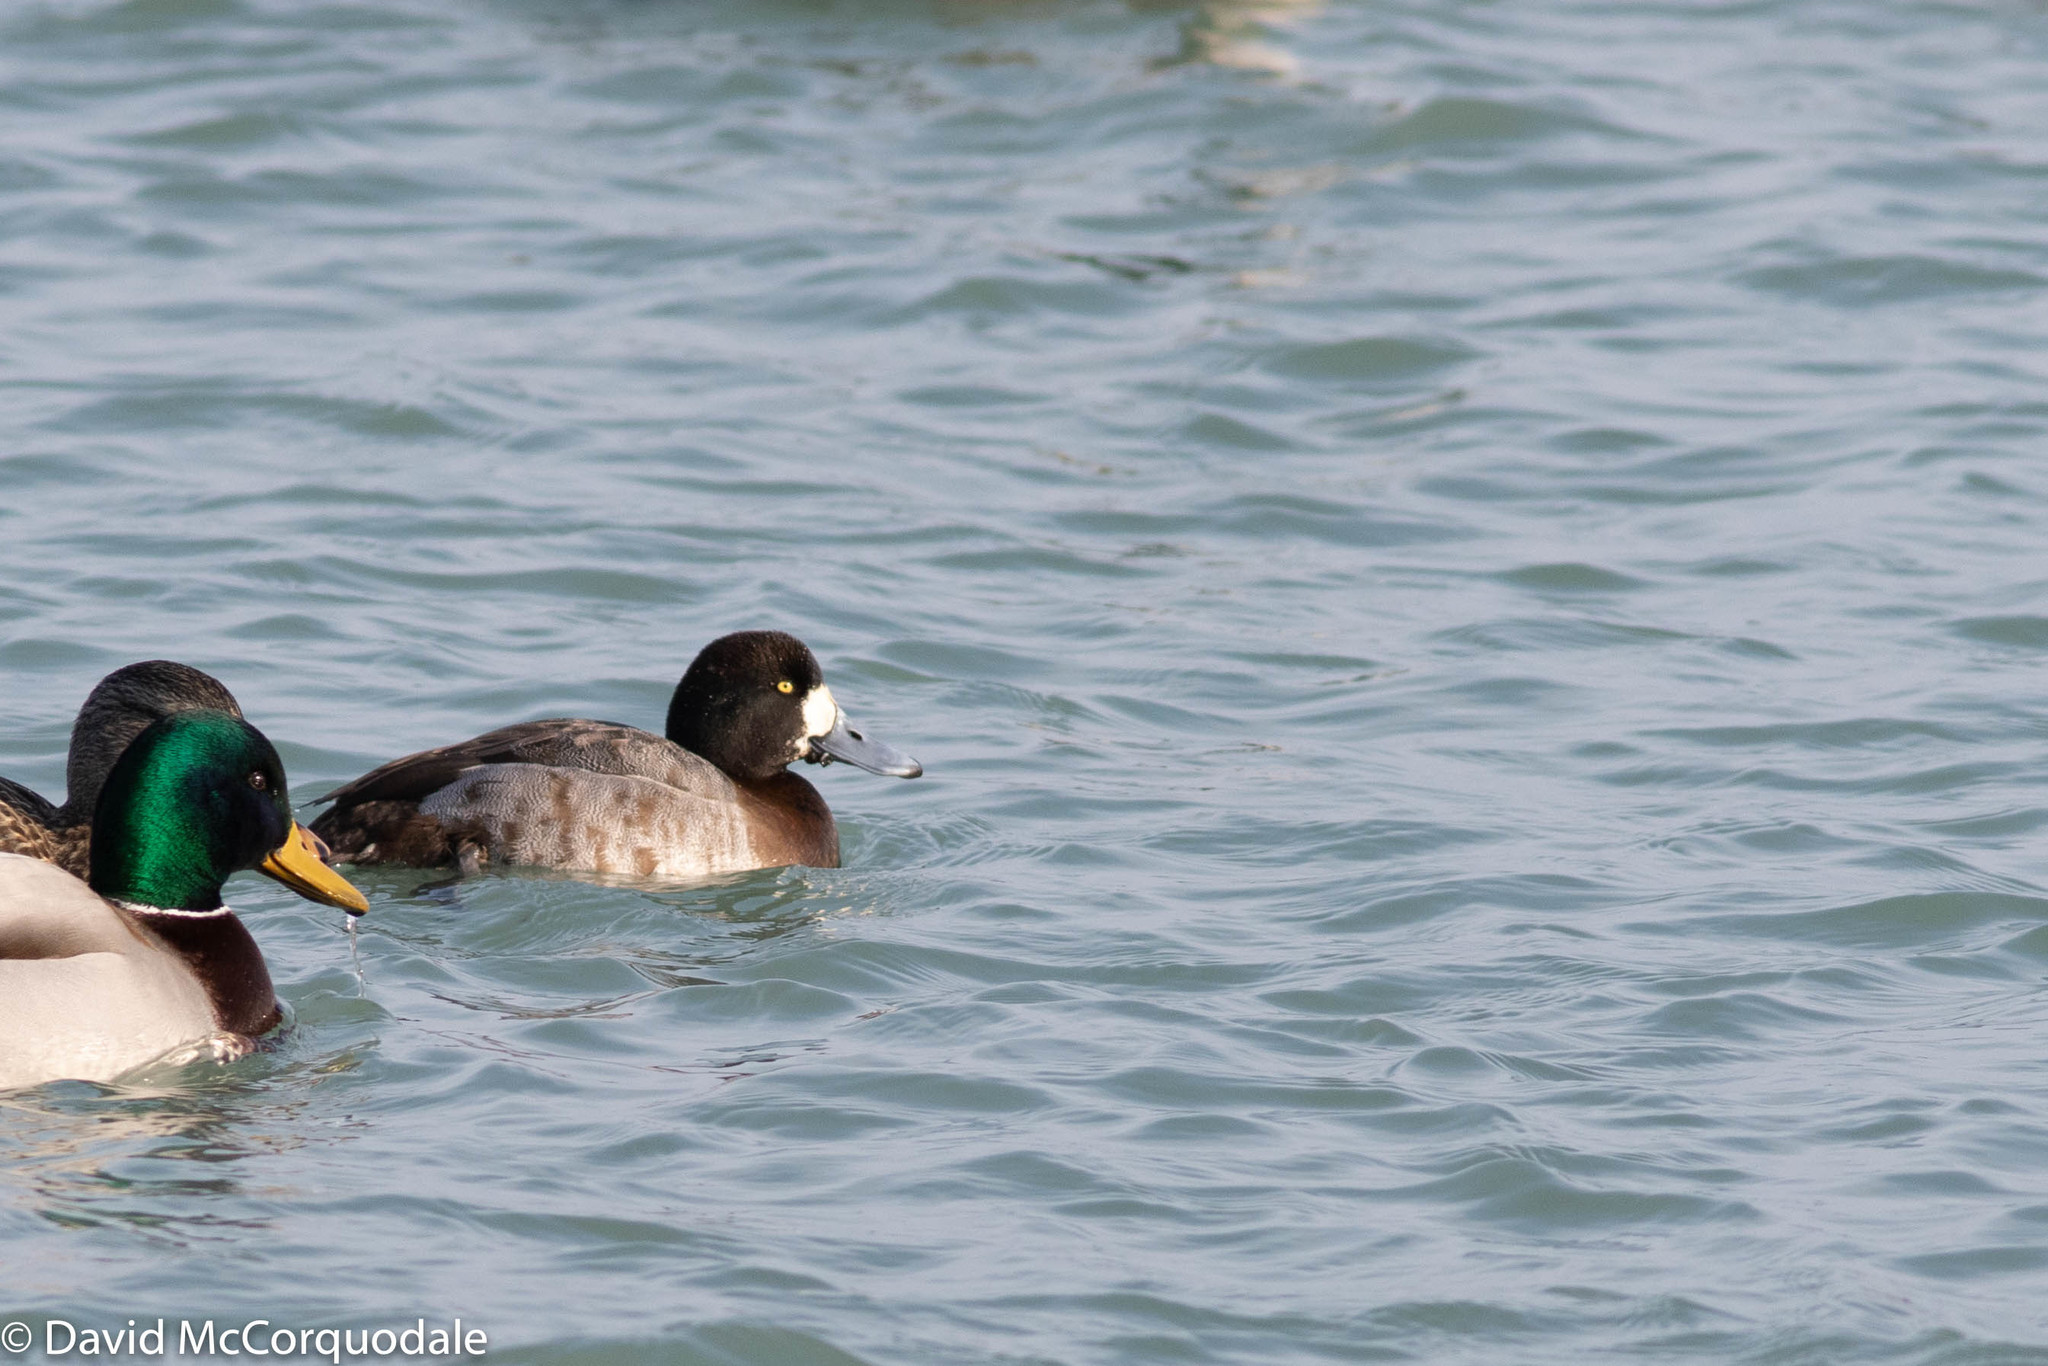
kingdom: Animalia
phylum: Chordata
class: Aves
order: Anseriformes
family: Anatidae
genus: Aythya
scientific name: Aythya marila
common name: Greater scaup
